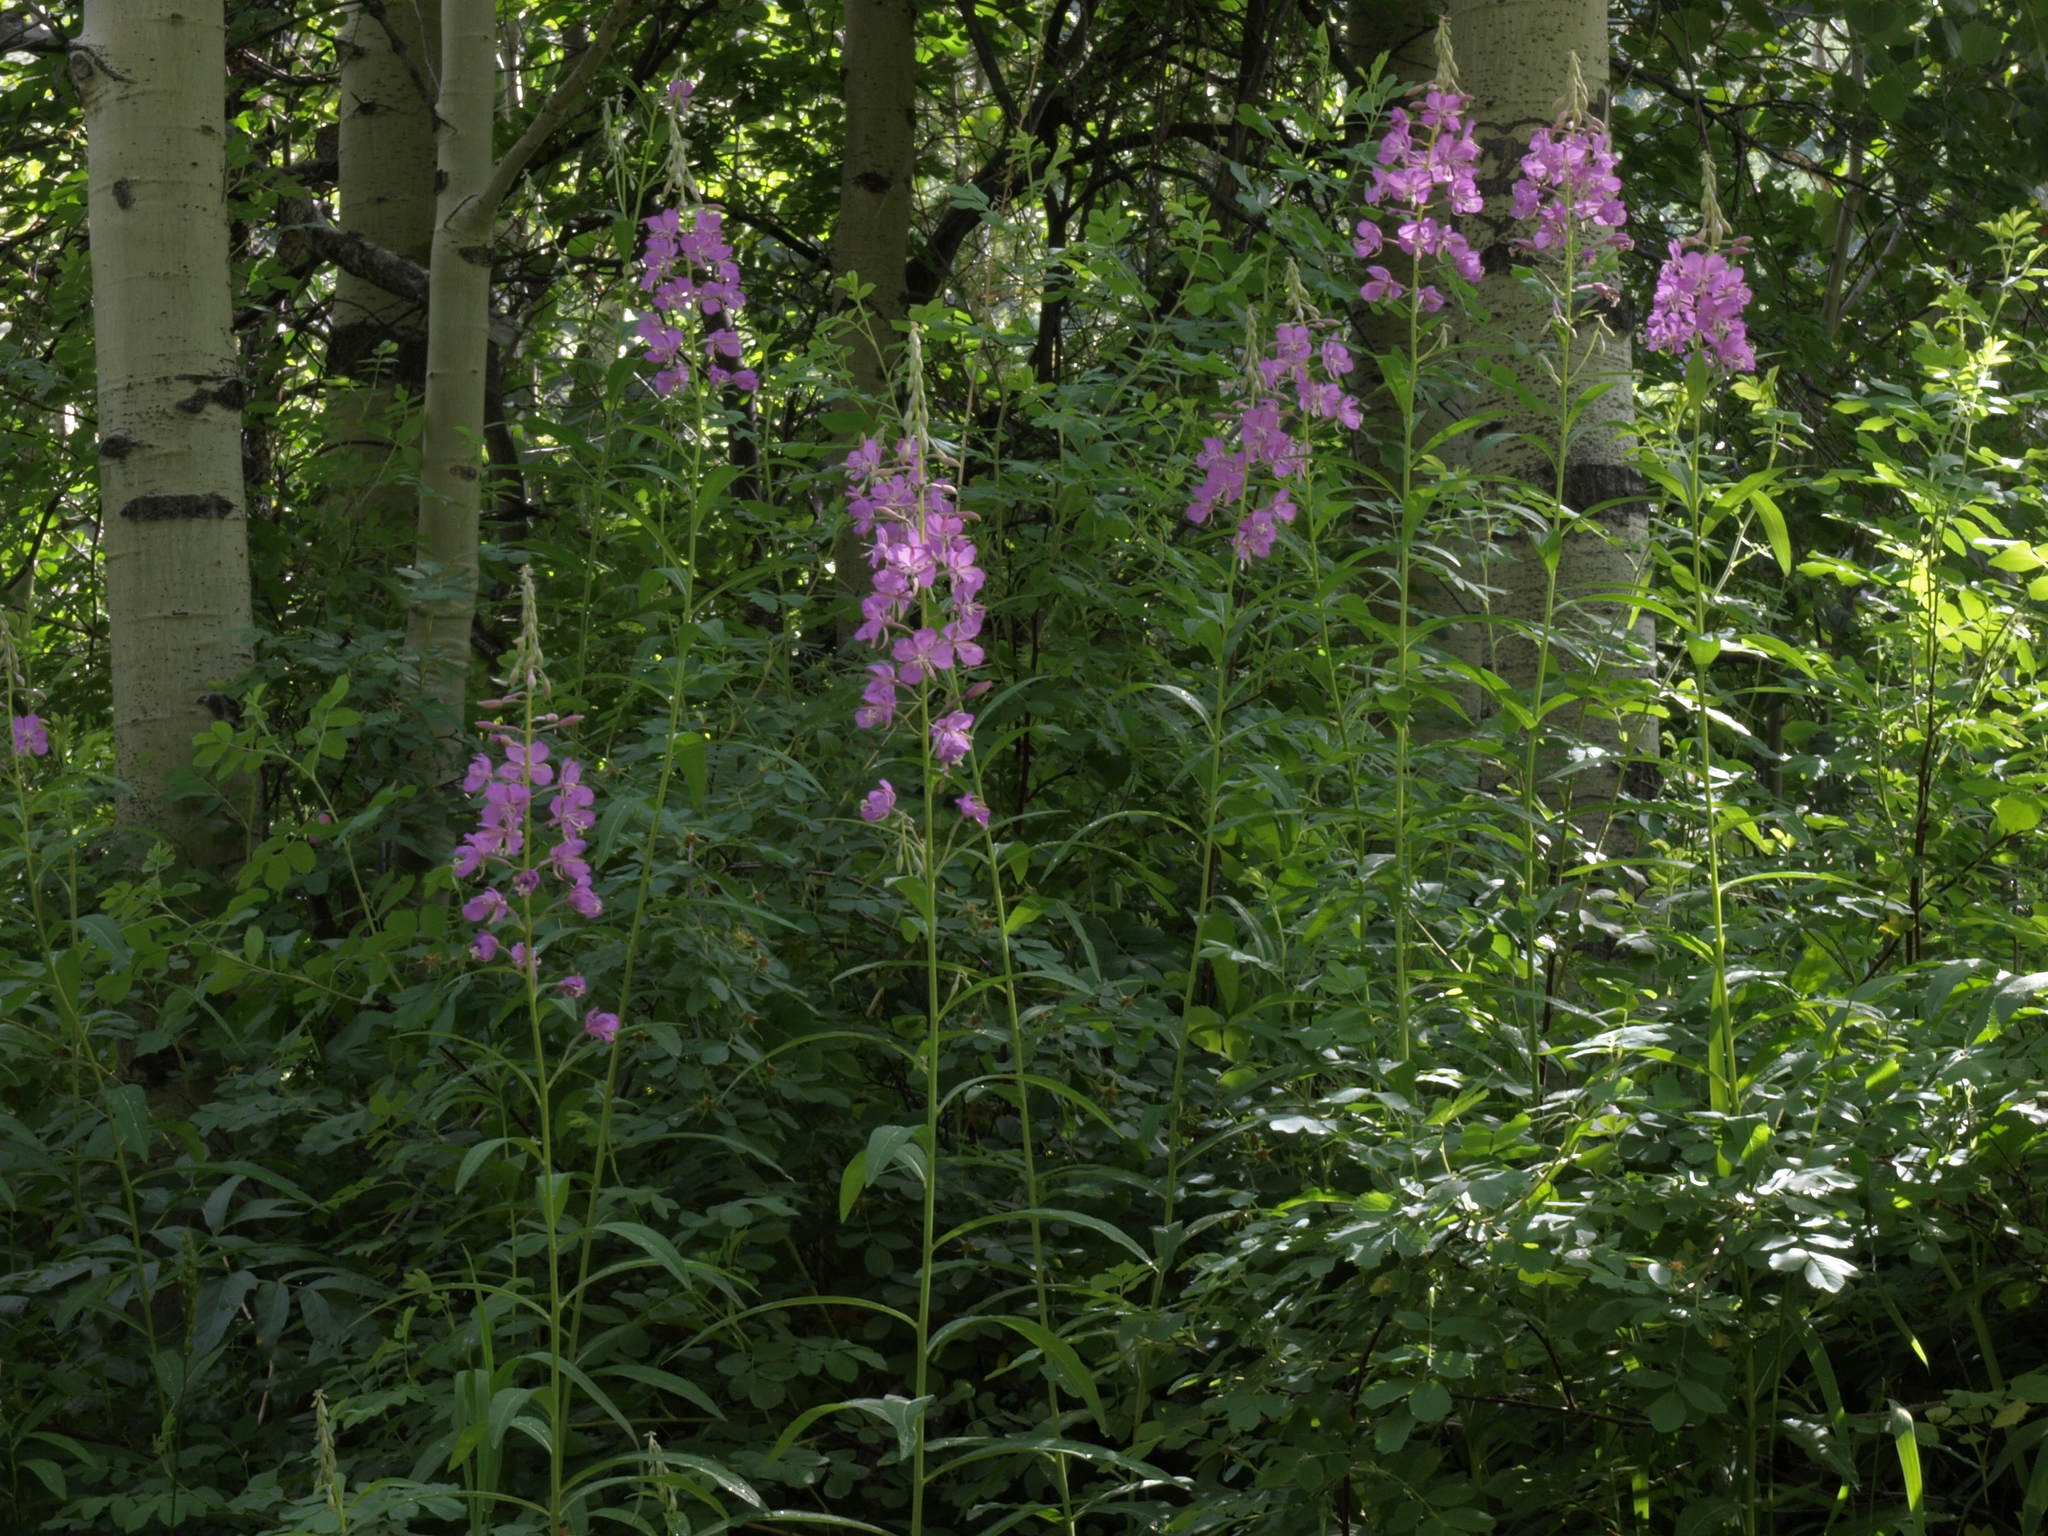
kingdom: Plantae
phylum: Tracheophyta
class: Magnoliopsida
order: Myrtales
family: Onagraceae
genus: Chamaenerion
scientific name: Chamaenerion angustifolium
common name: Fireweed
